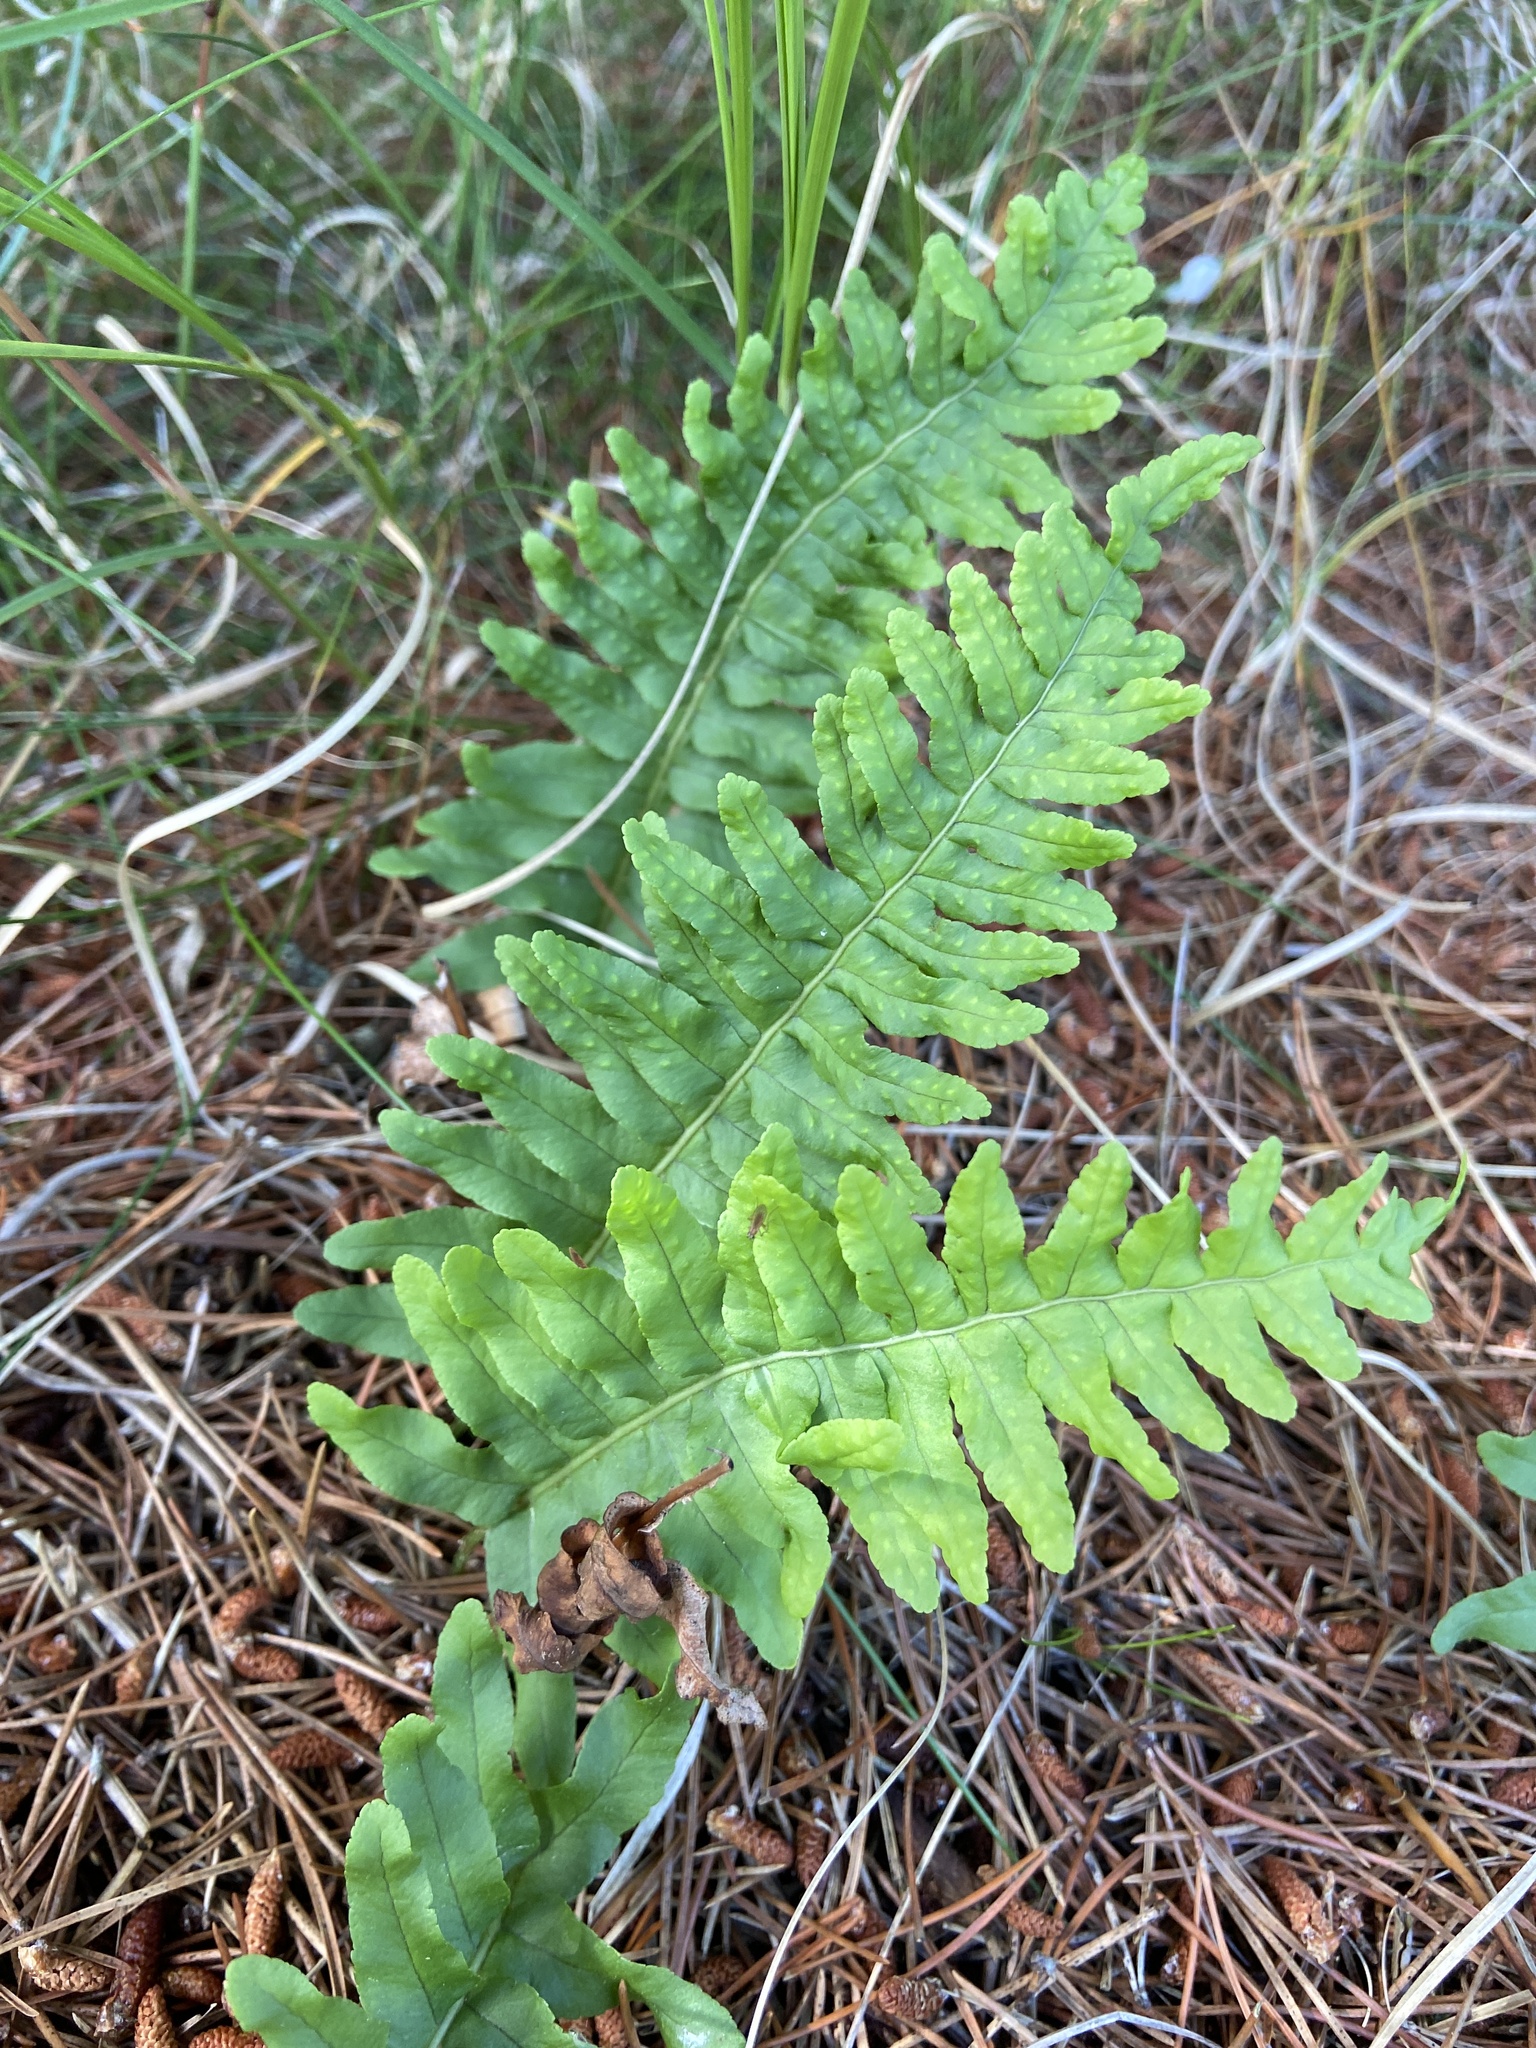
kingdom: Plantae
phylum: Tracheophyta
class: Polypodiopsida
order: Polypodiales
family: Polypodiaceae
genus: Polypodium
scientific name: Polypodium vulgare
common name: Common polypody
